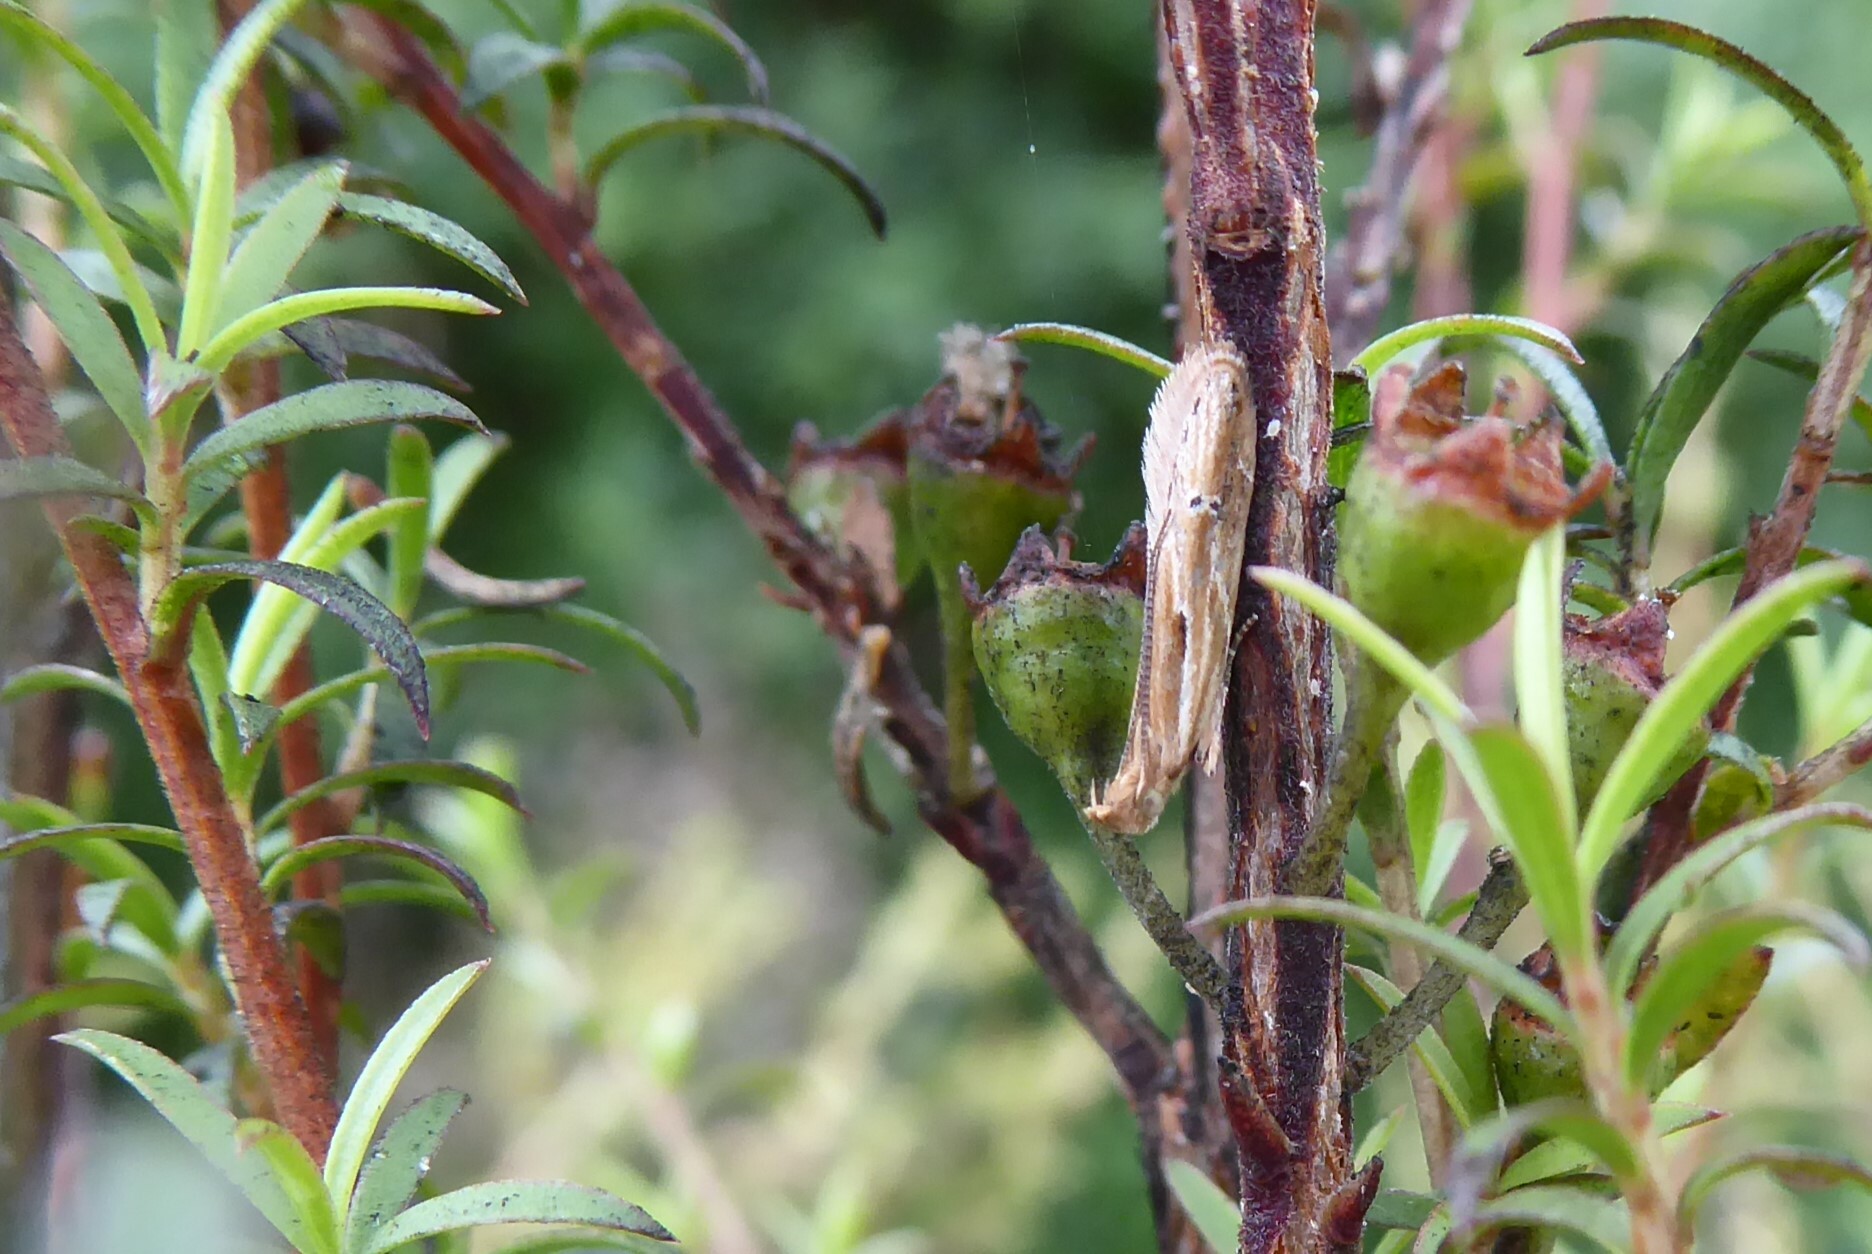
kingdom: Animalia
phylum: Arthropoda
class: Insecta
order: Lepidoptera
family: Depressariidae
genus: Eutorna
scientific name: Eutorna symmorpha
